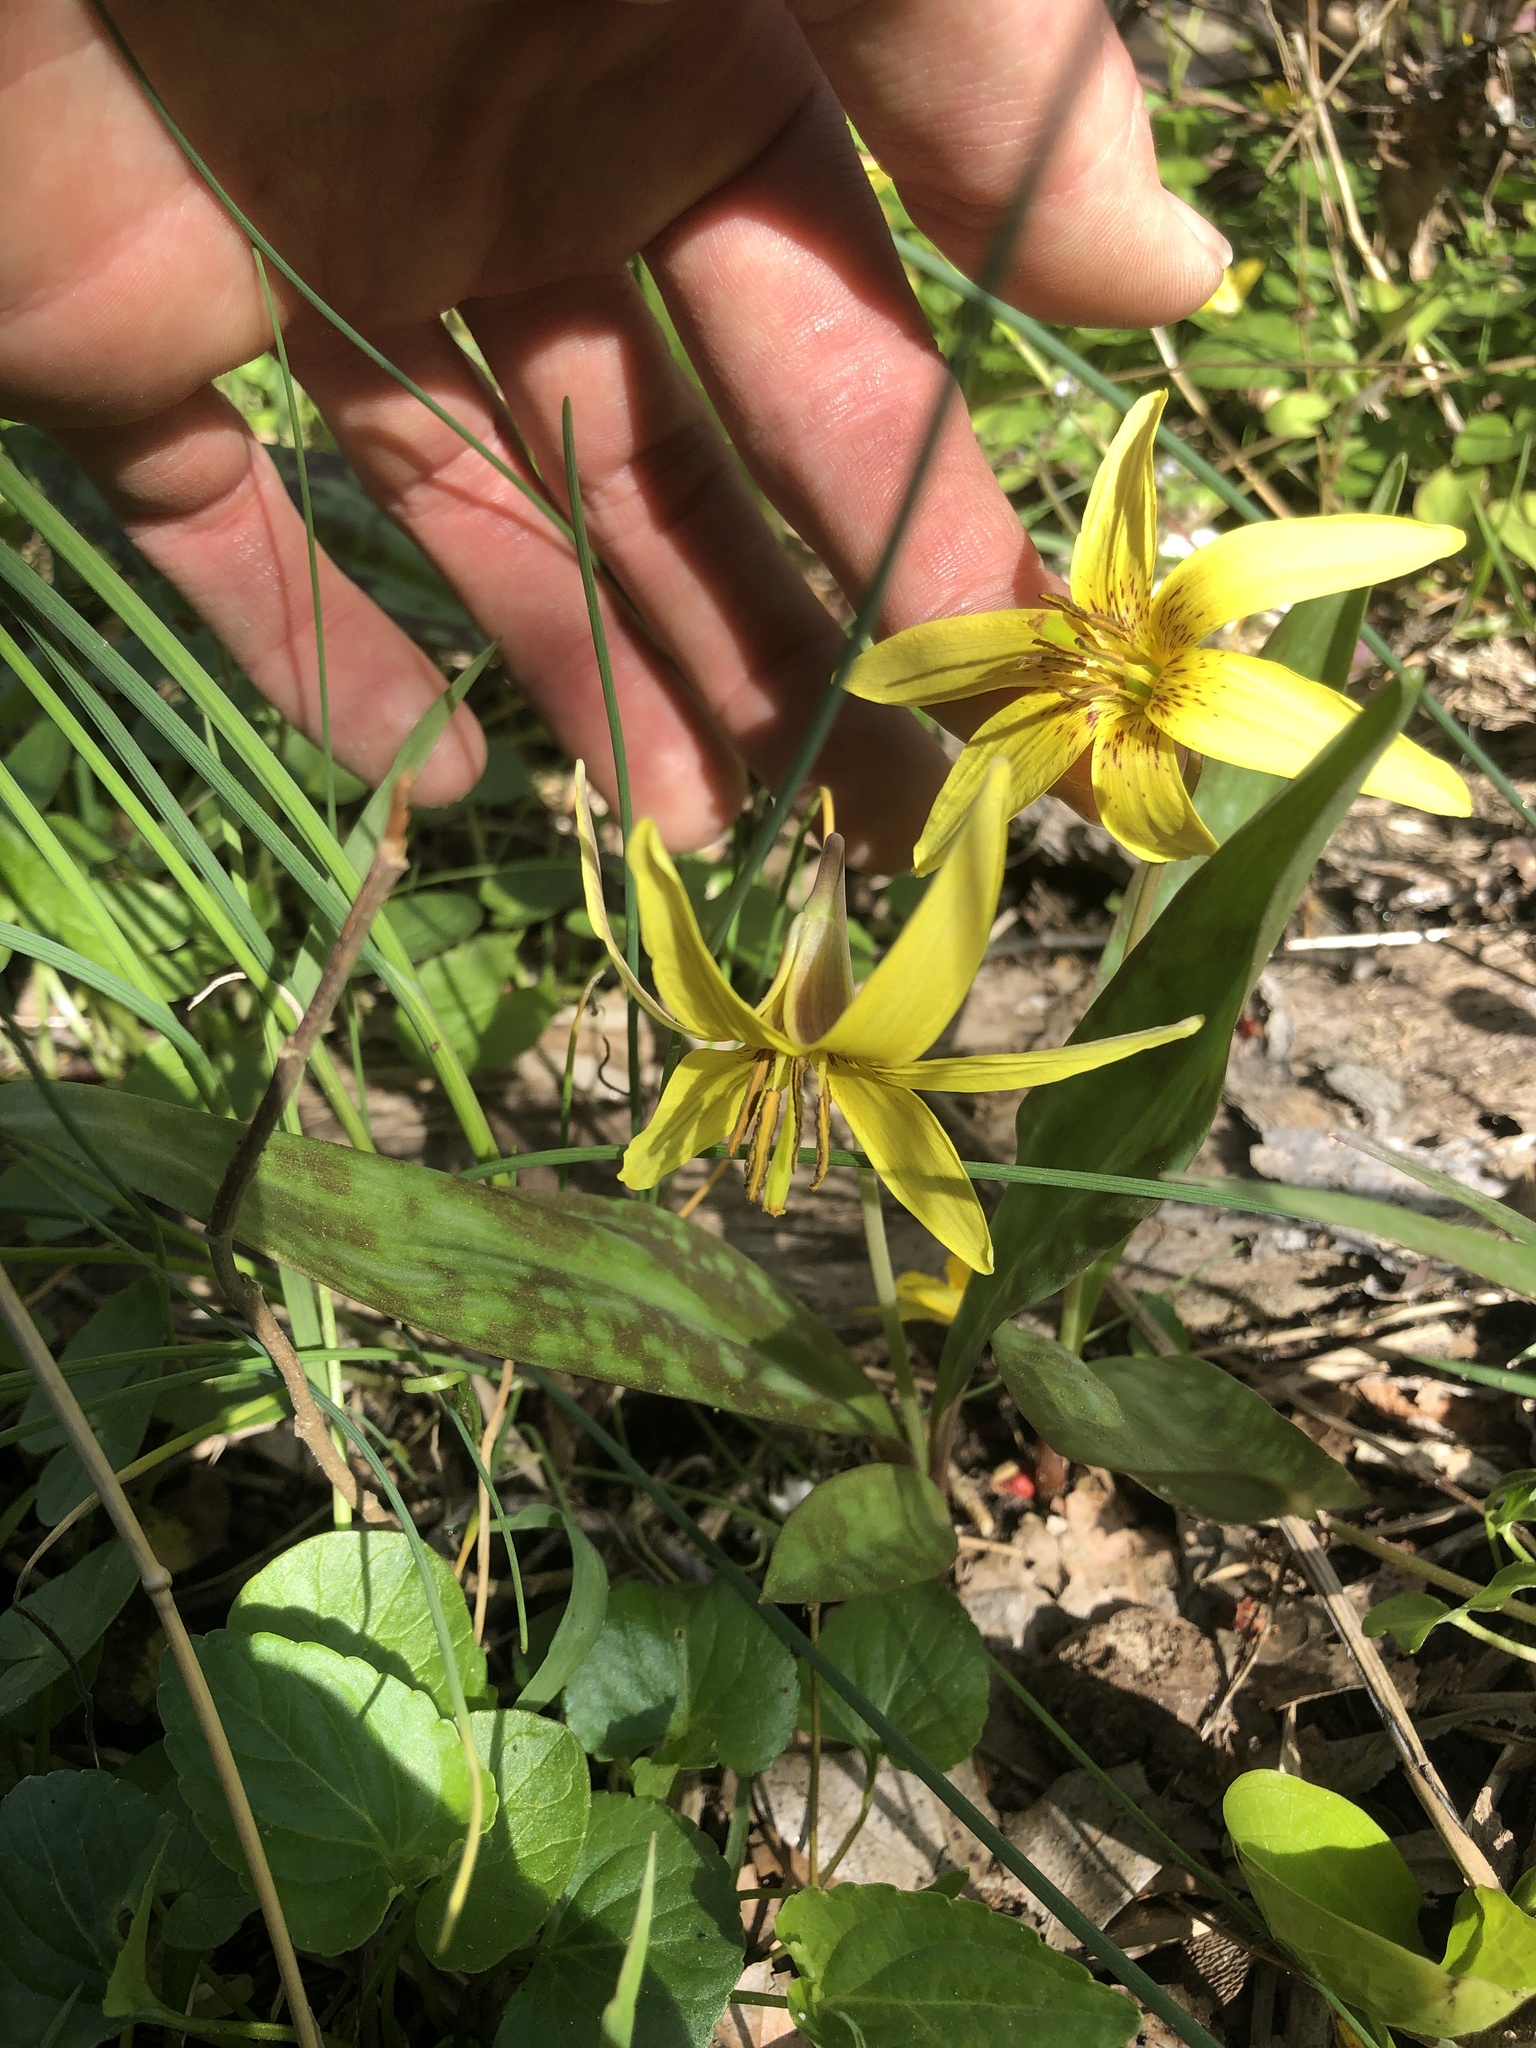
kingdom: Plantae
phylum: Tracheophyta
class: Liliopsida
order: Liliales
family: Liliaceae
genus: Erythronium
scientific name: Erythronium americanum
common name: Yellow adder's-tongue
